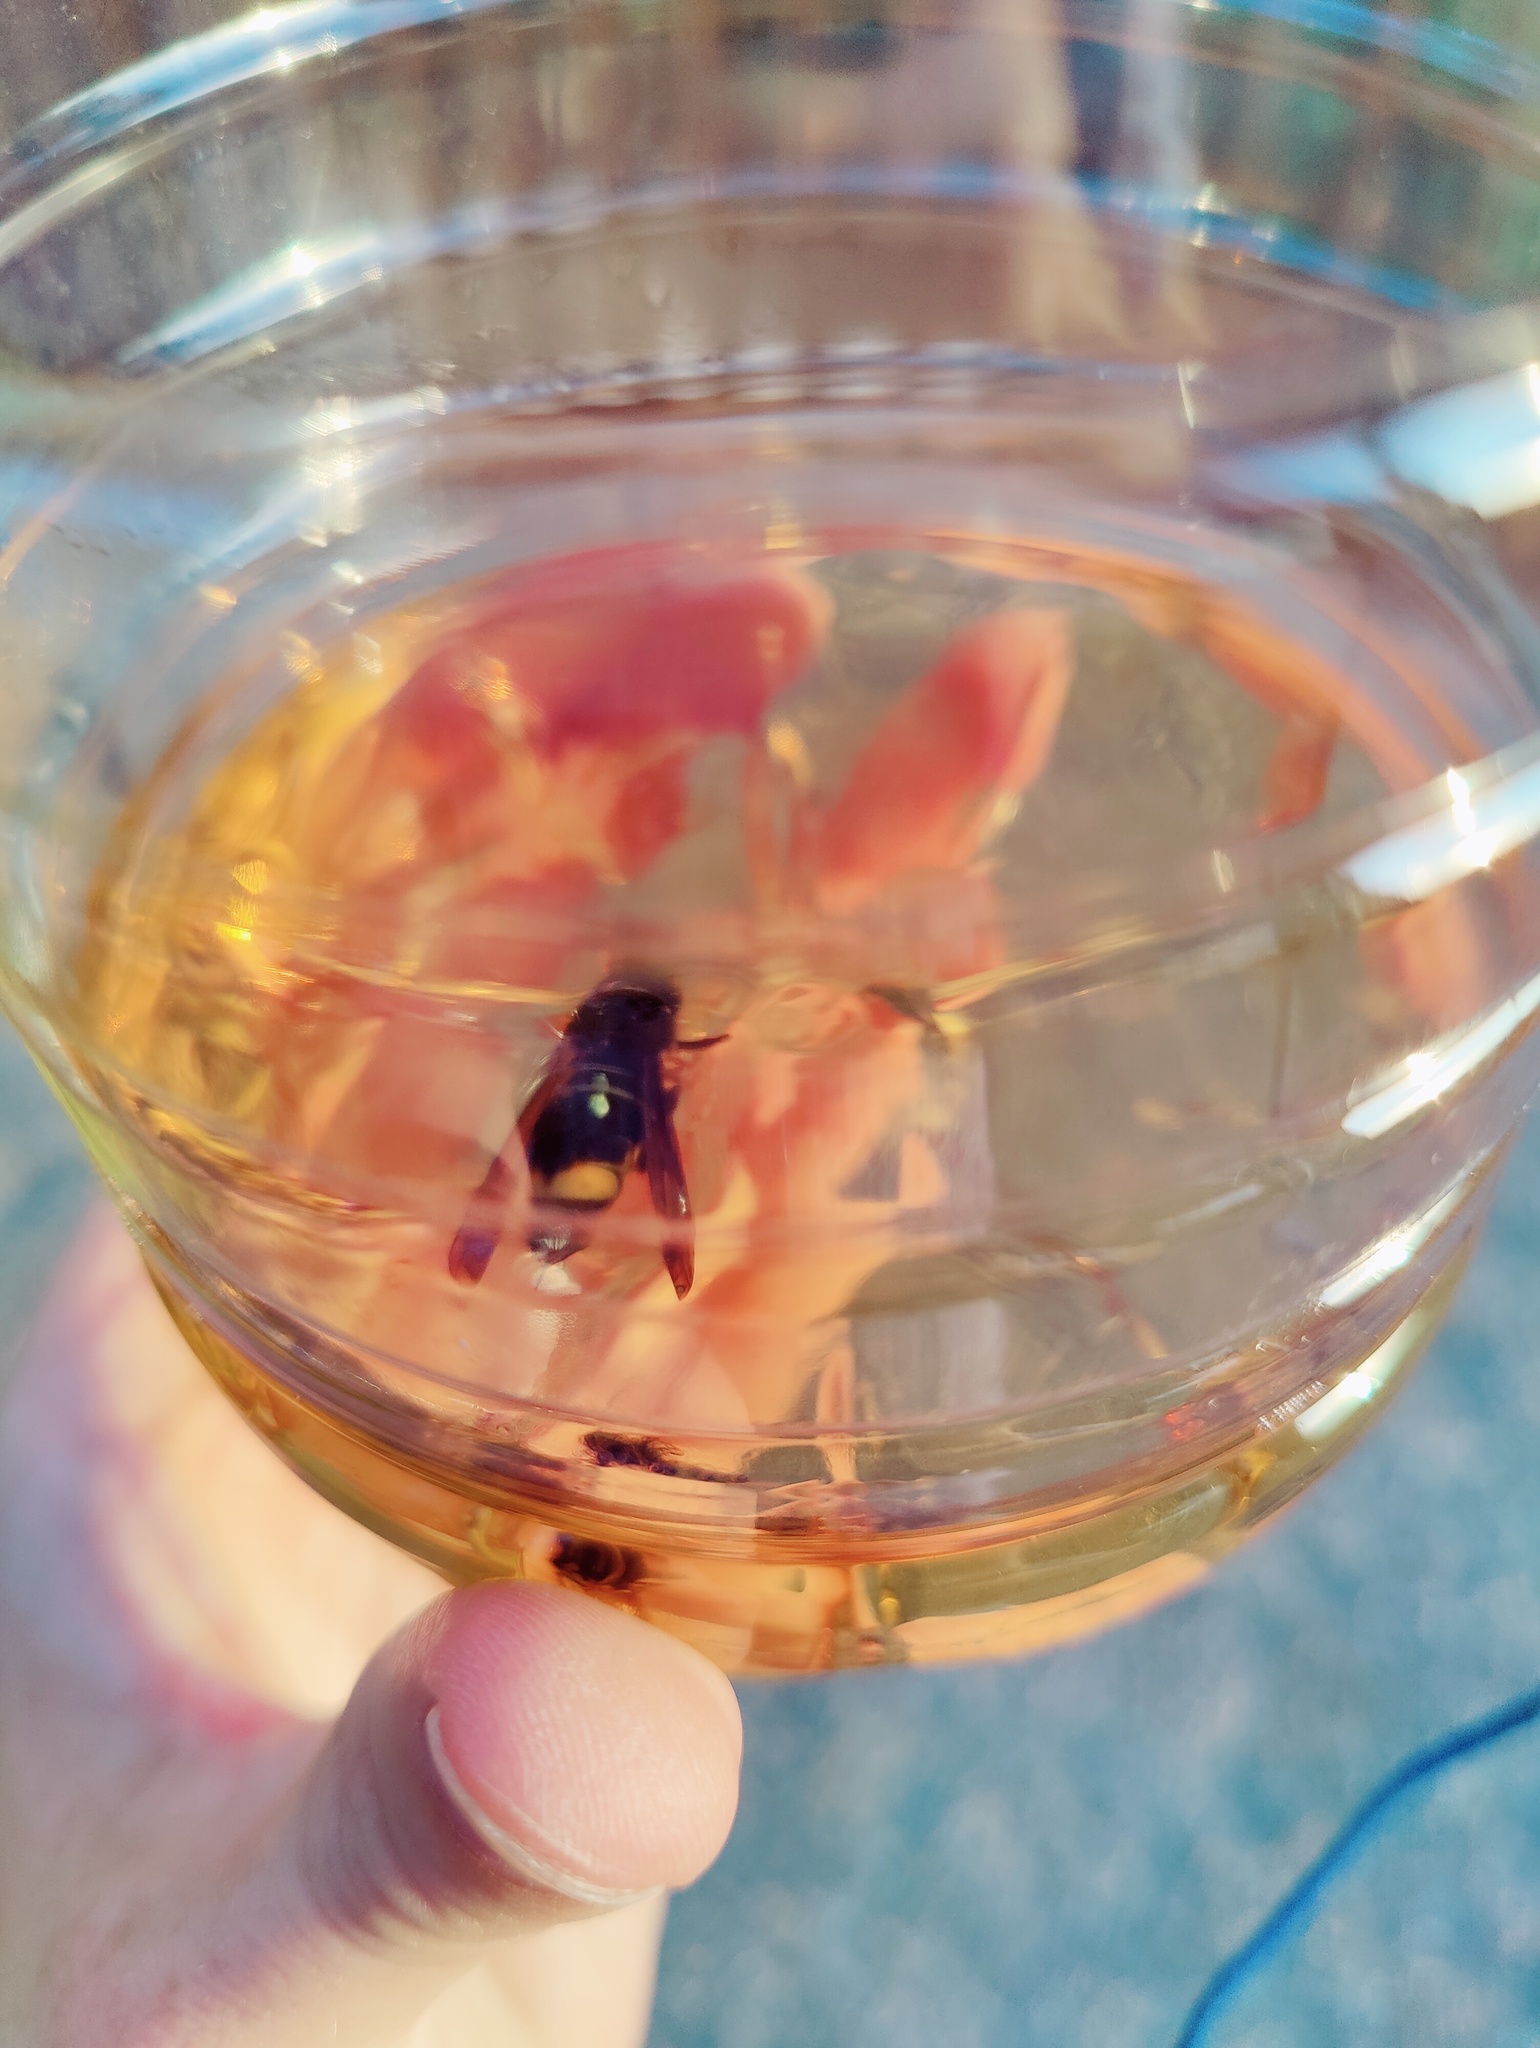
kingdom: Animalia
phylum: Arthropoda
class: Insecta
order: Hymenoptera
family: Vespidae
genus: Vespa
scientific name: Vespa velutina
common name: Asian hornet
